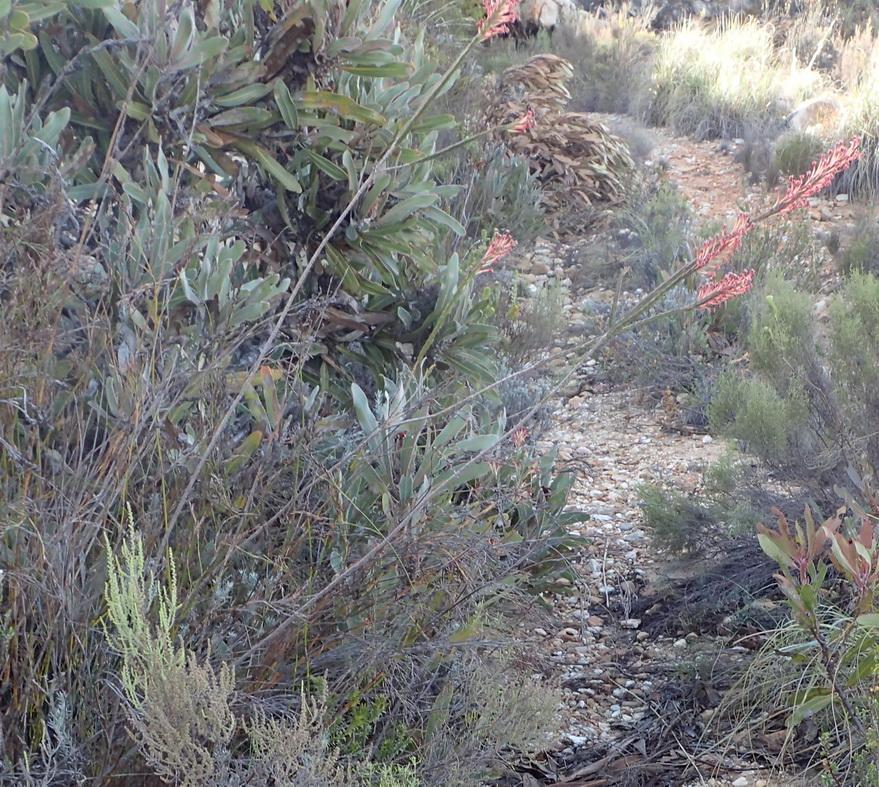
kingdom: Plantae
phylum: Tracheophyta
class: Magnoliopsida
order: Malvales
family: Thymelaeaceae
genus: Struthiola
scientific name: Struthiola macowanii
